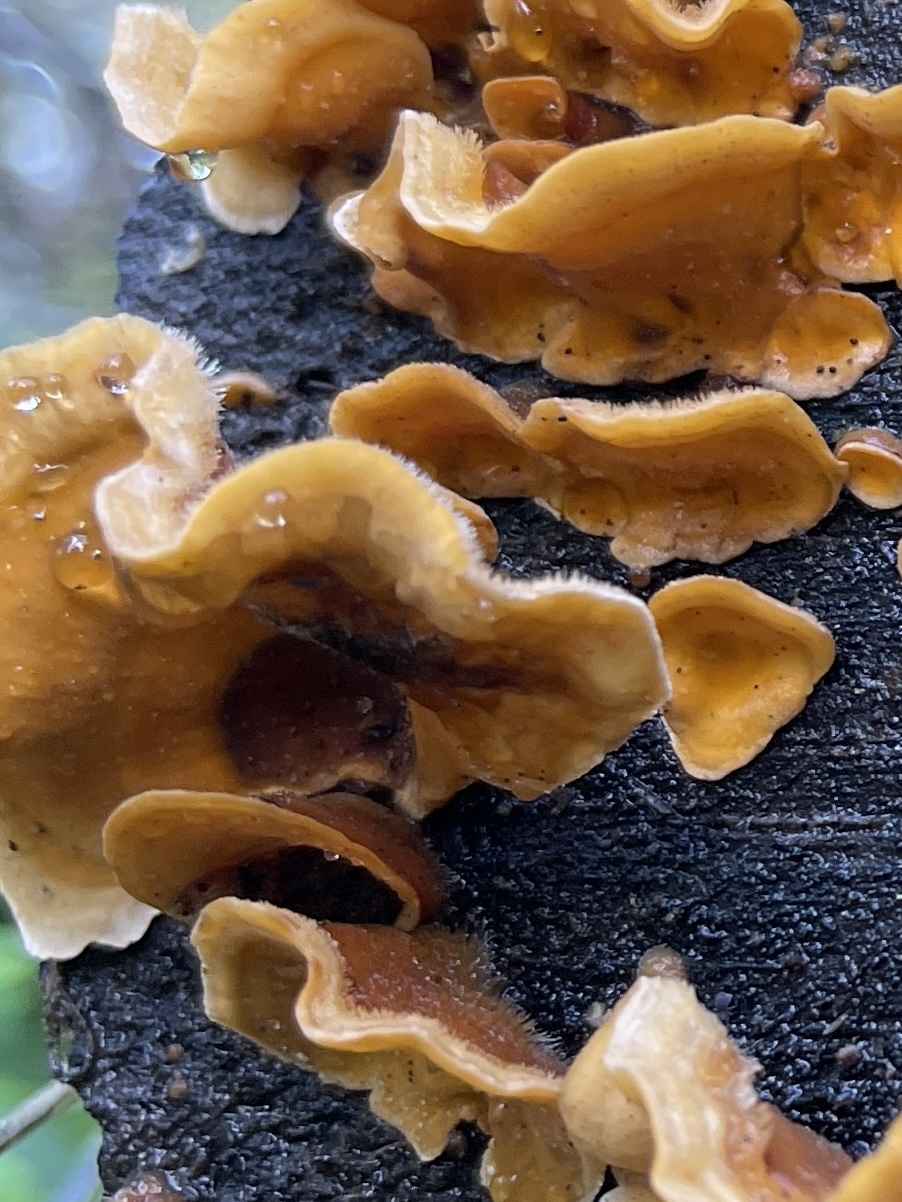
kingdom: Fungi
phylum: Basidiomycota
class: Agaricomycetes
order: Russulales
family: Stereaceae
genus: Stereum
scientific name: Stereum hirsutum
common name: Hairy curtain crust
